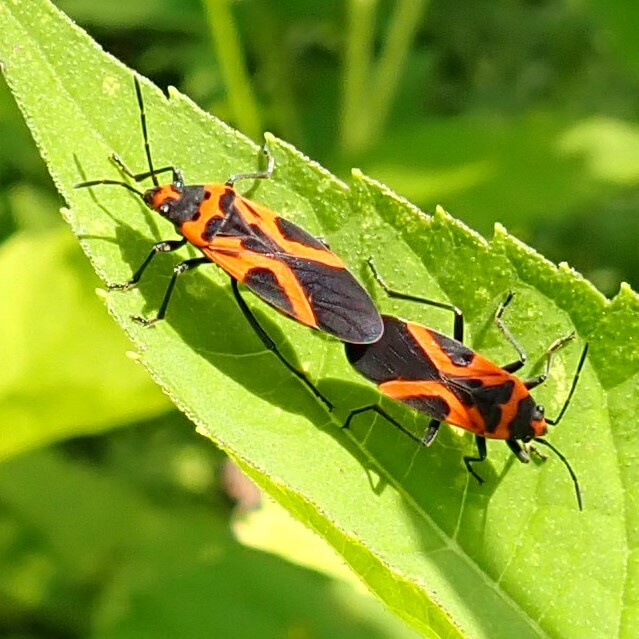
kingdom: Animalia
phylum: Arthropoda
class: Insecta
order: Hemiptera
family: Lygaeidae
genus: Lygaeus
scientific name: Lygaeus turcicus
